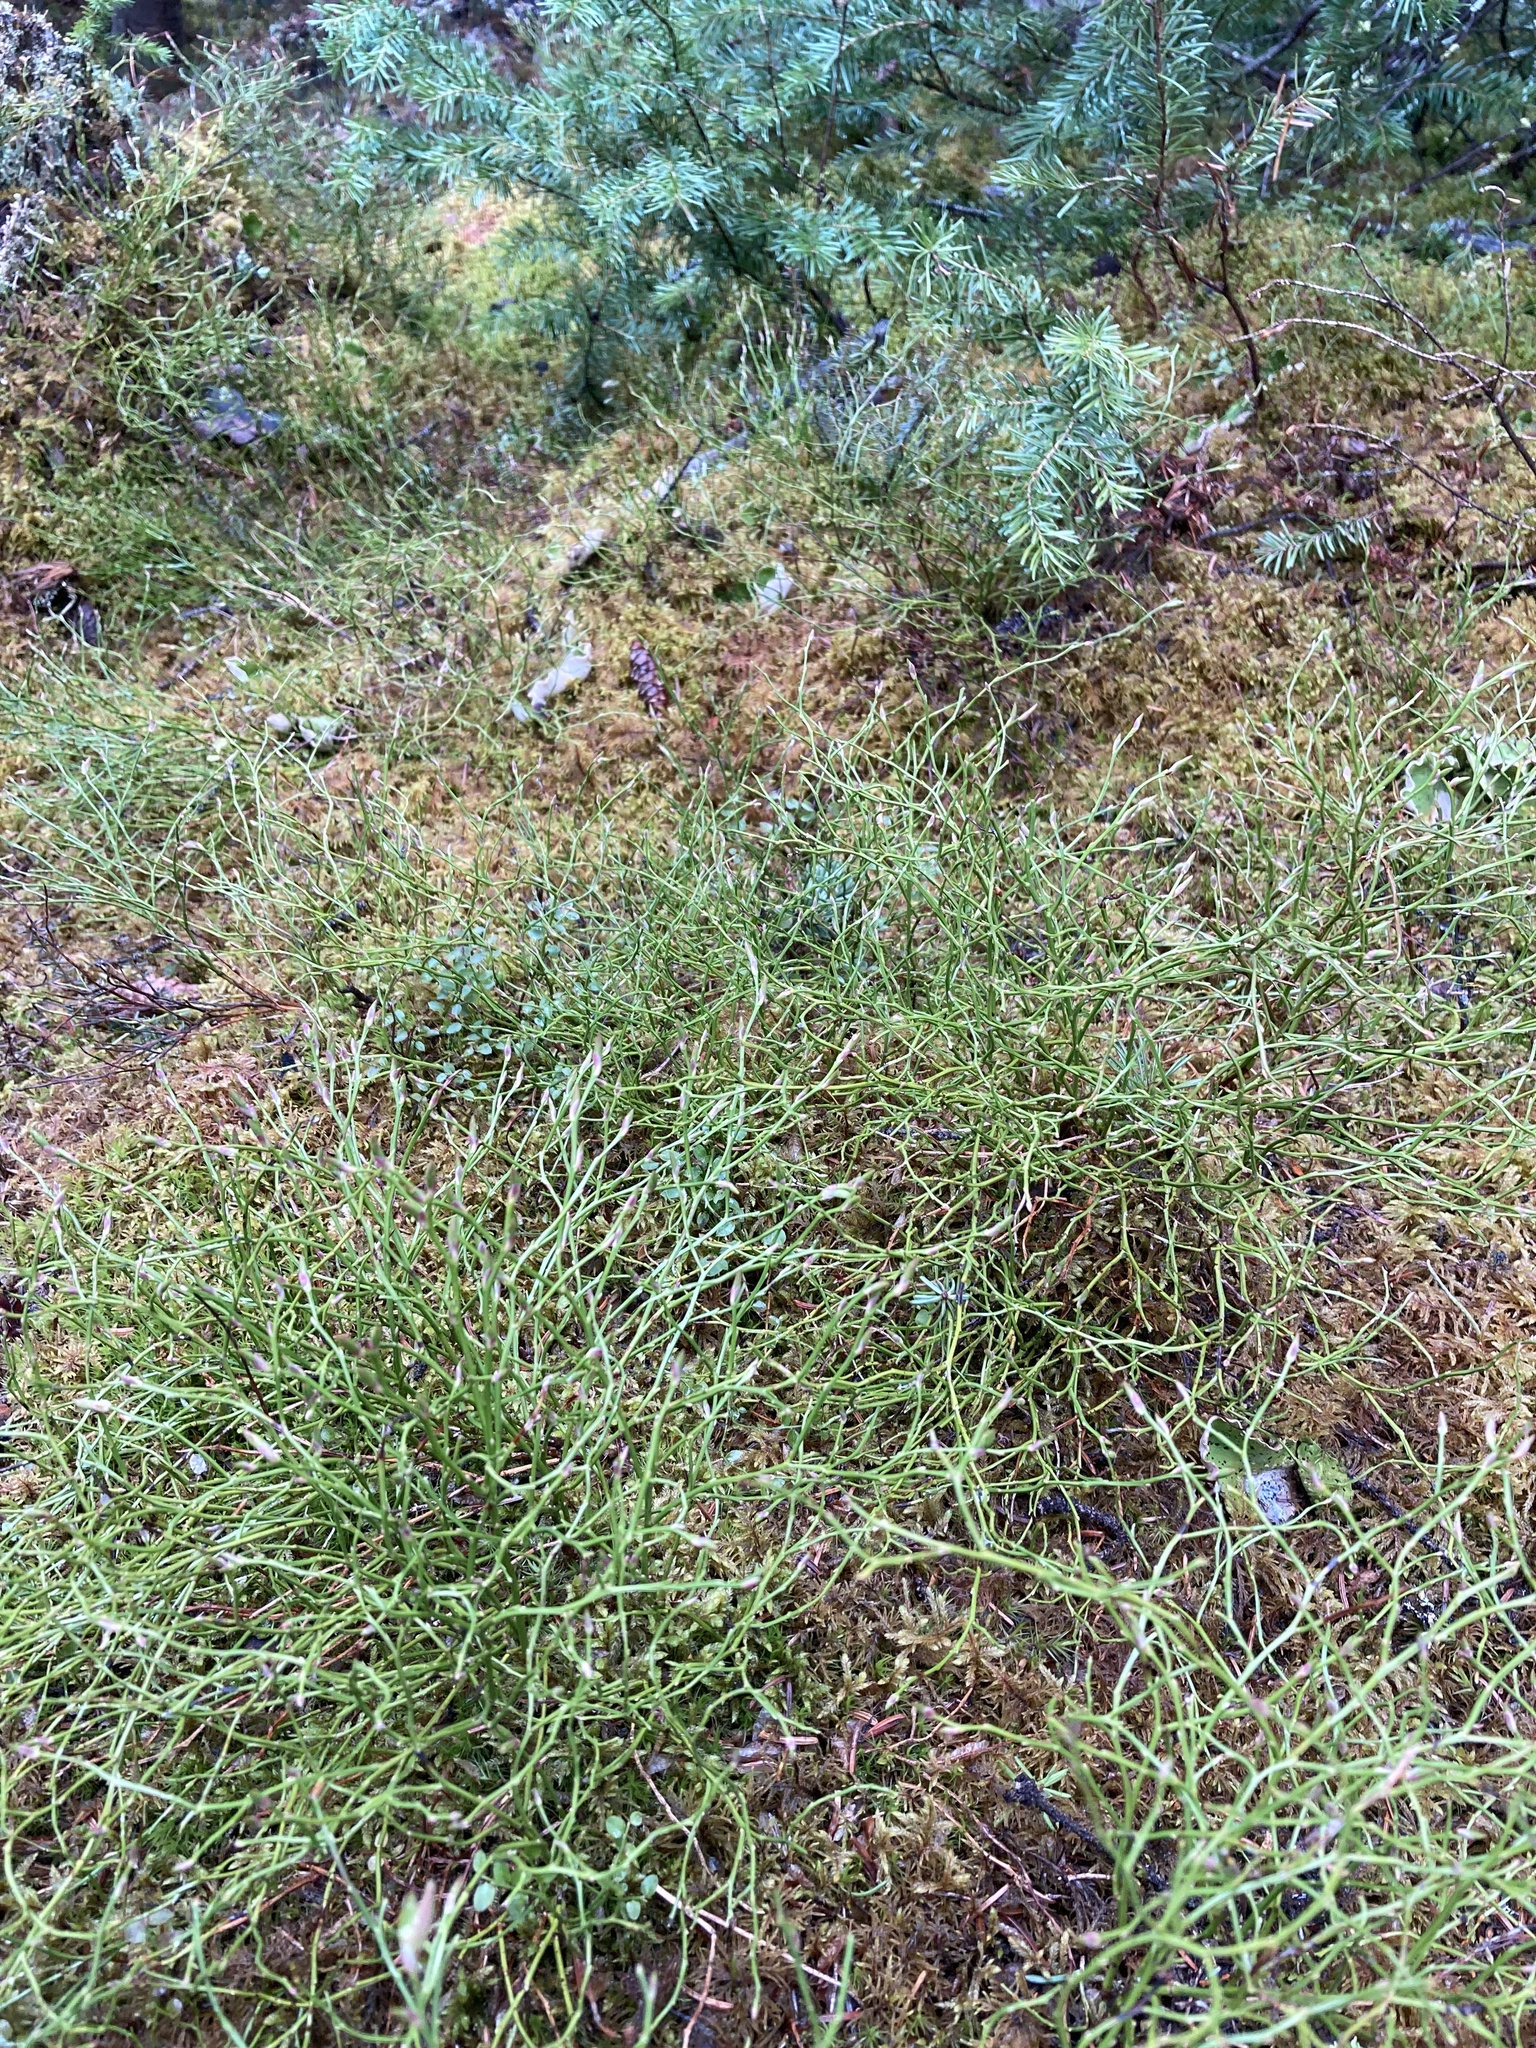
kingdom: Plantae
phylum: Tracheophyta
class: Magnoliopsida
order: Ericales
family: Ericaceae
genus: Vaccinium
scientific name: Vaccinium myrtillus
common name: Bilberry
